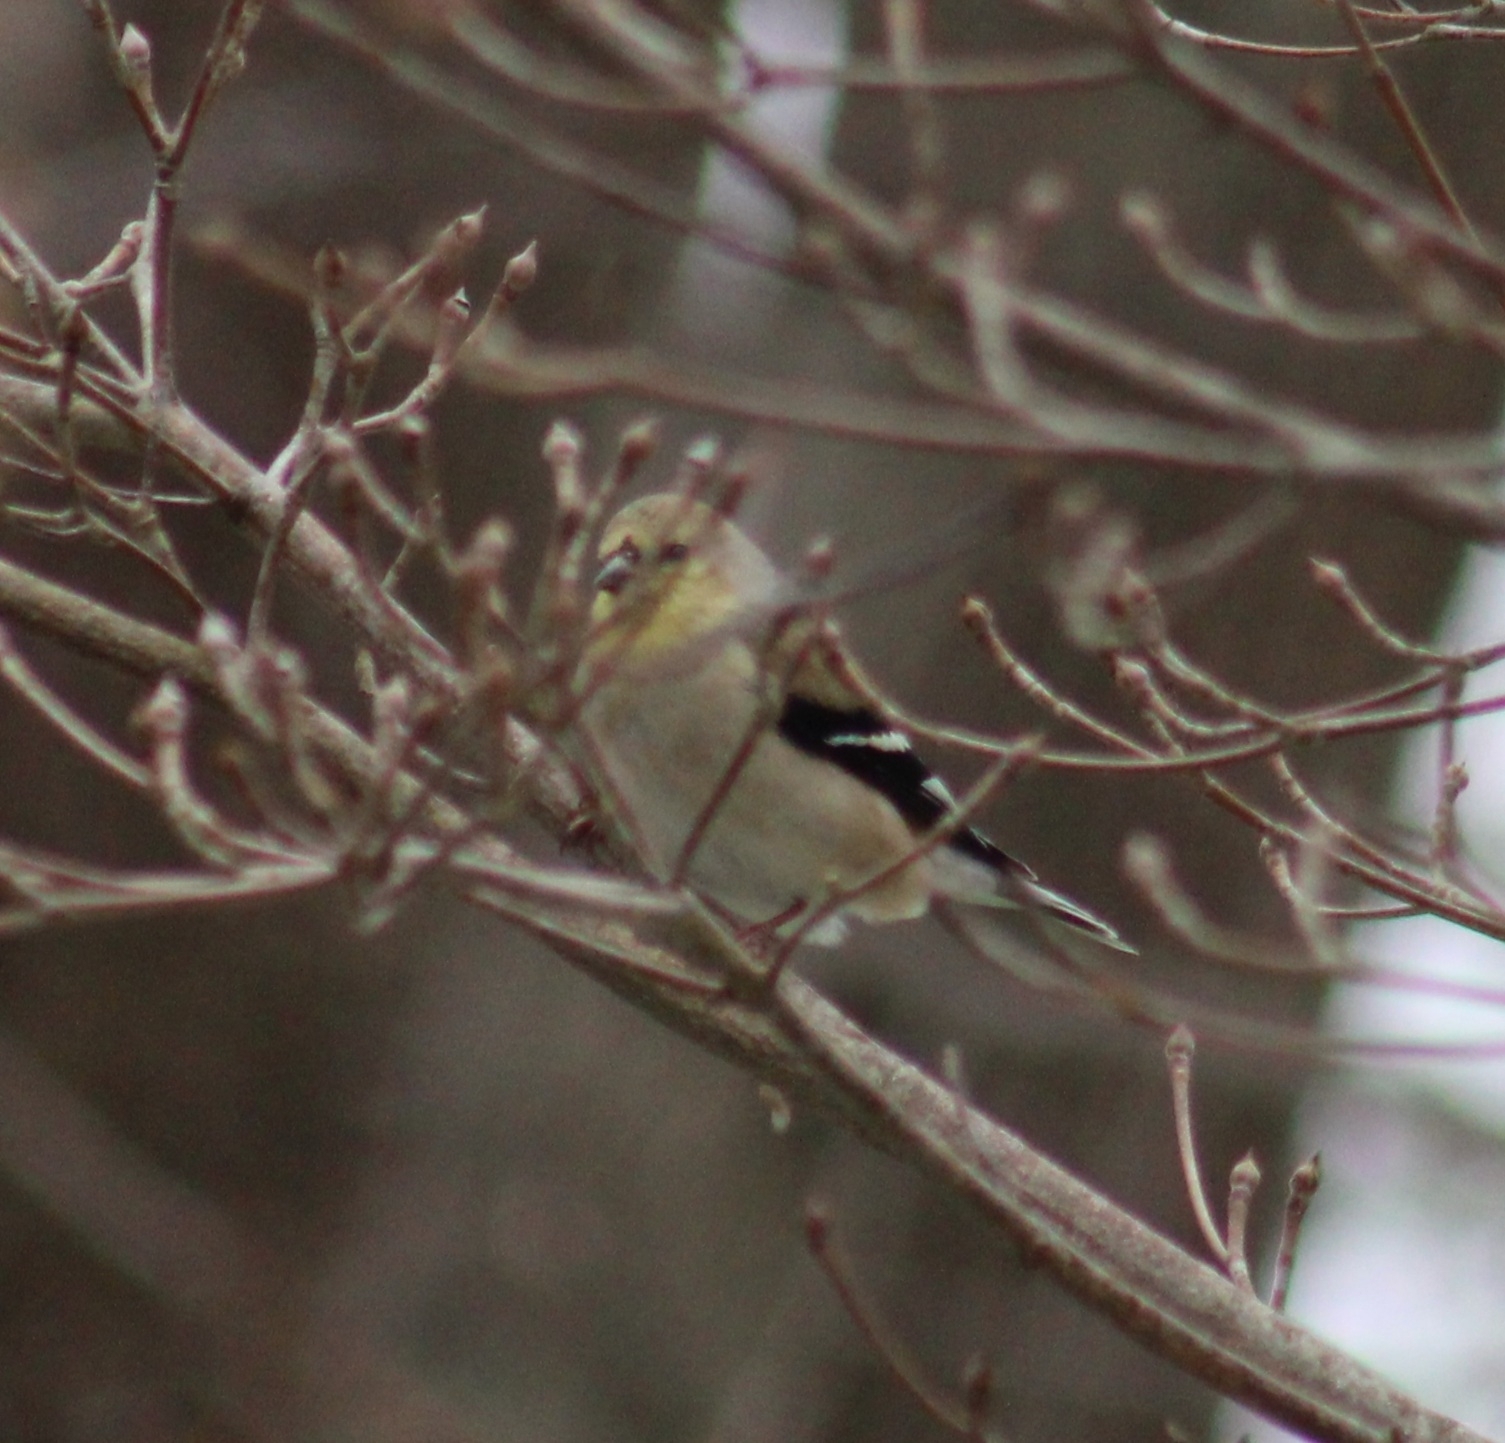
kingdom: Animalia
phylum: Chordata
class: Aves
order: Passeriformes
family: Fringillidae
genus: Spinus
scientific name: Spinus tristis
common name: American goldfinch
